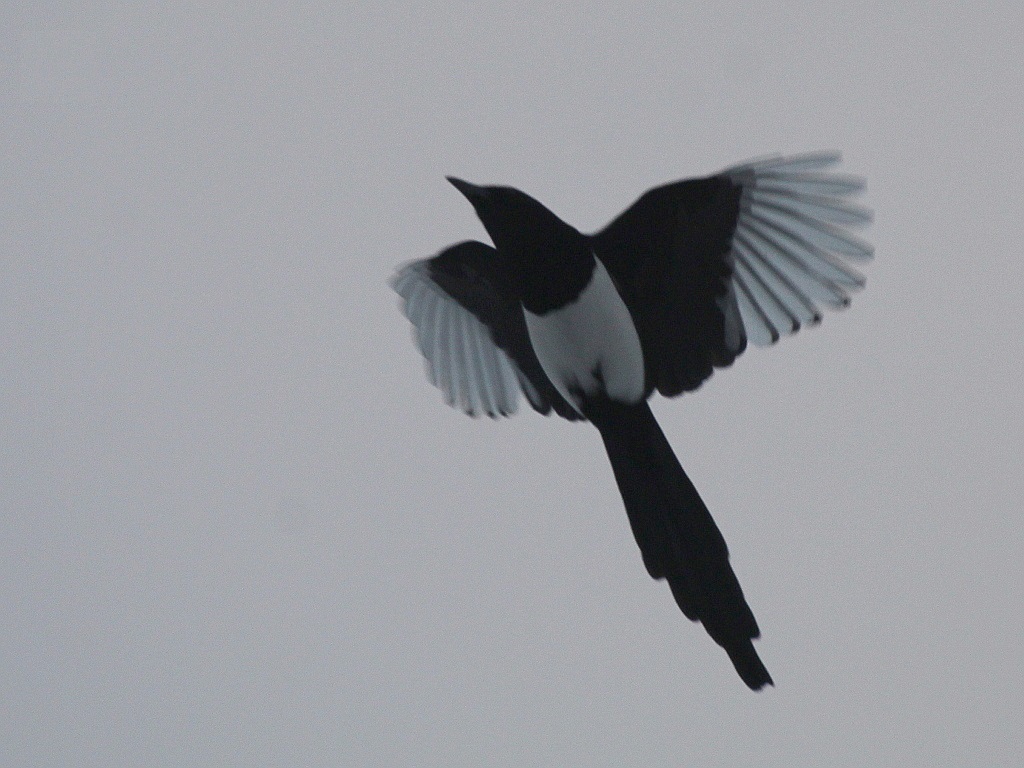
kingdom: Animalia
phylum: Chordata
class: Aves
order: Passeriformes
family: Corvidae
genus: Pica
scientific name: Pica pica
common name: Eurasian magpie
